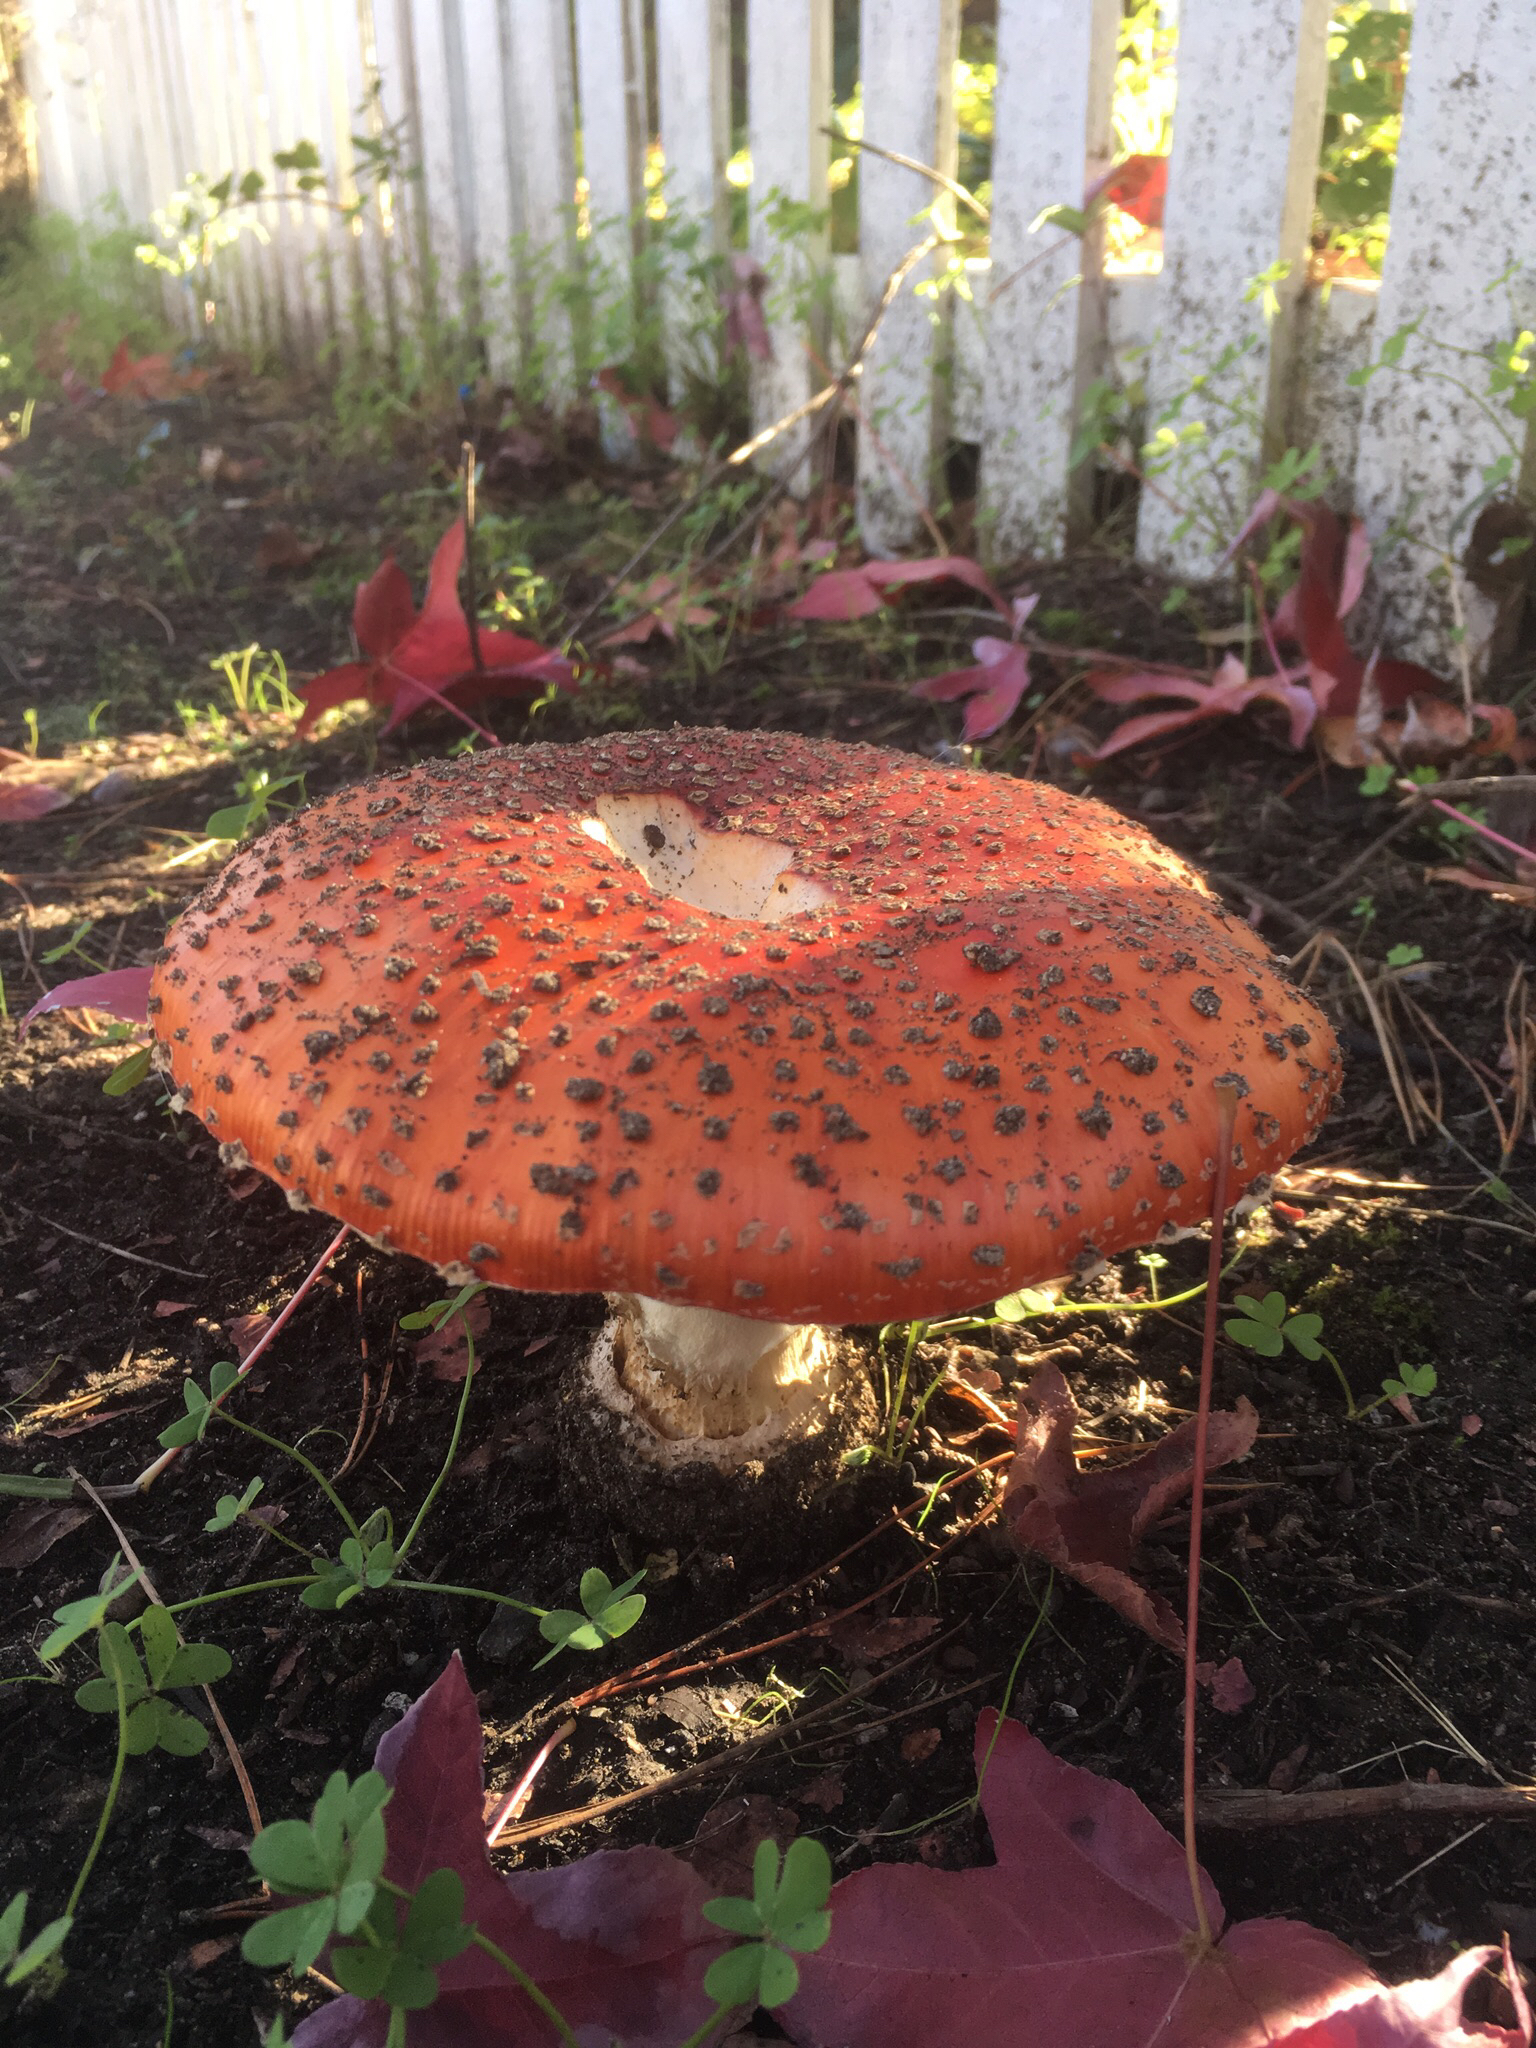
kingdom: Fungi
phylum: Basidiomycota
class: Agaricomycetes
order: Agaricales
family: Amanitaceae
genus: Amanita
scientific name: Amanita muscaria
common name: Fly agaric
